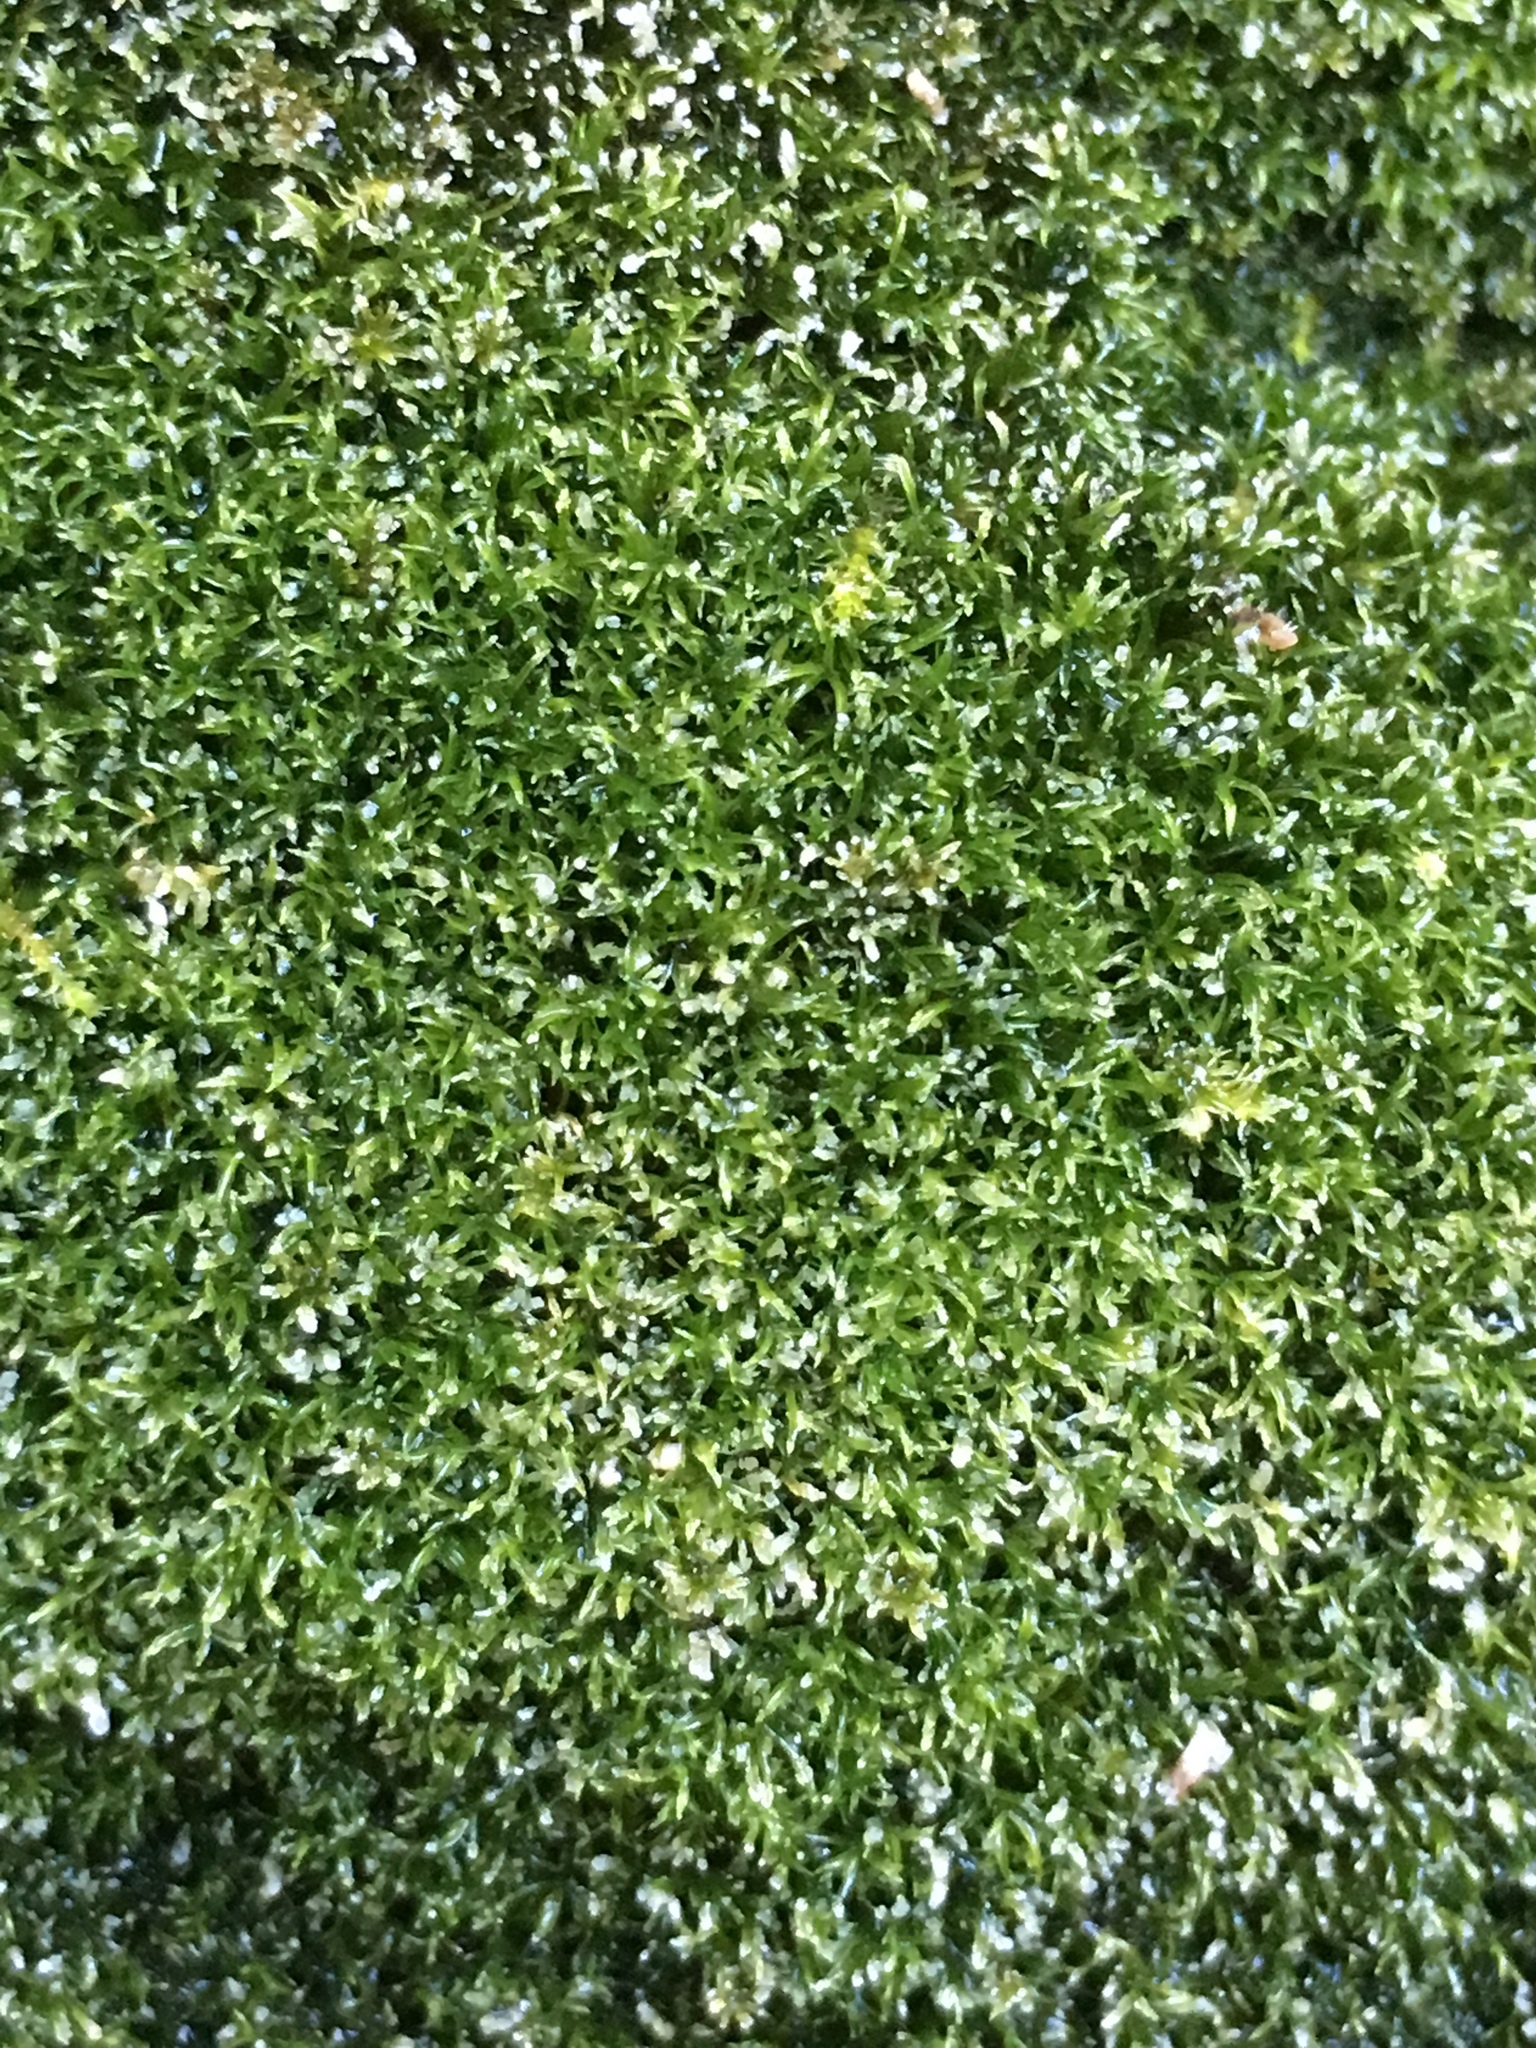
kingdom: Plantae
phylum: Bryophyta
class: Bryopsida
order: Pottiales
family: Pottiaceae
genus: Eucladium
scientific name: Eucladium verticillatum
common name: Whorled tufa-moss
